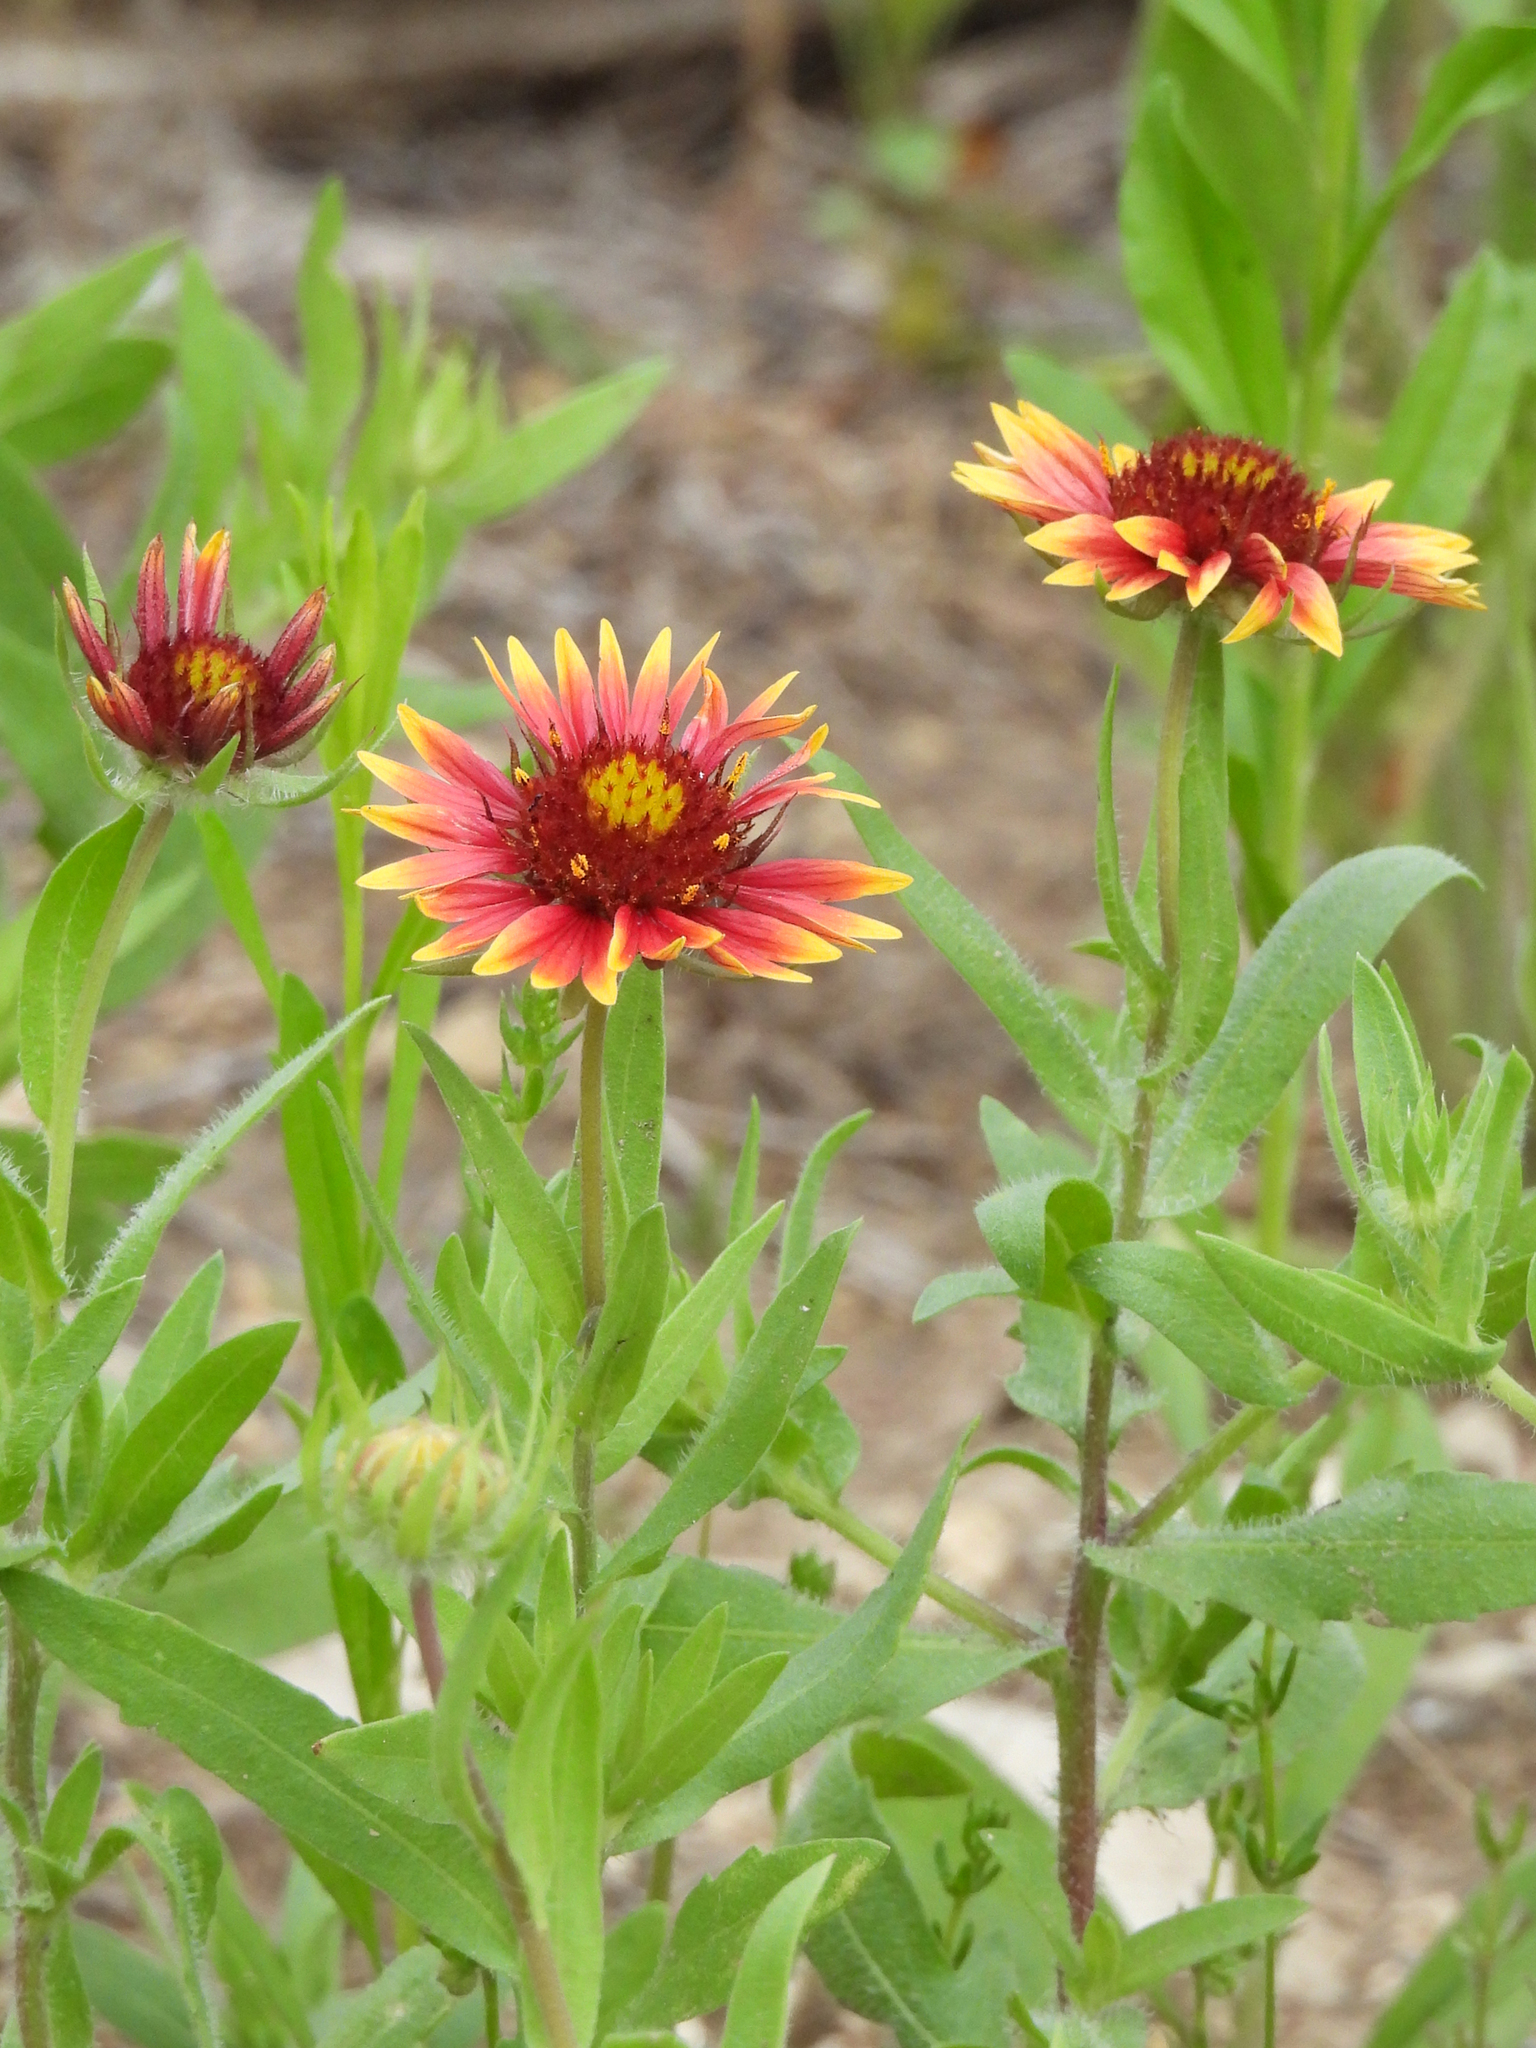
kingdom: Plantae
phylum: Tracheophyta
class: Magnoliopsida
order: Asterales
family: Asteraceae
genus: Gaillardia
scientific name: Gaillardia pulchella
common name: Firewheel
